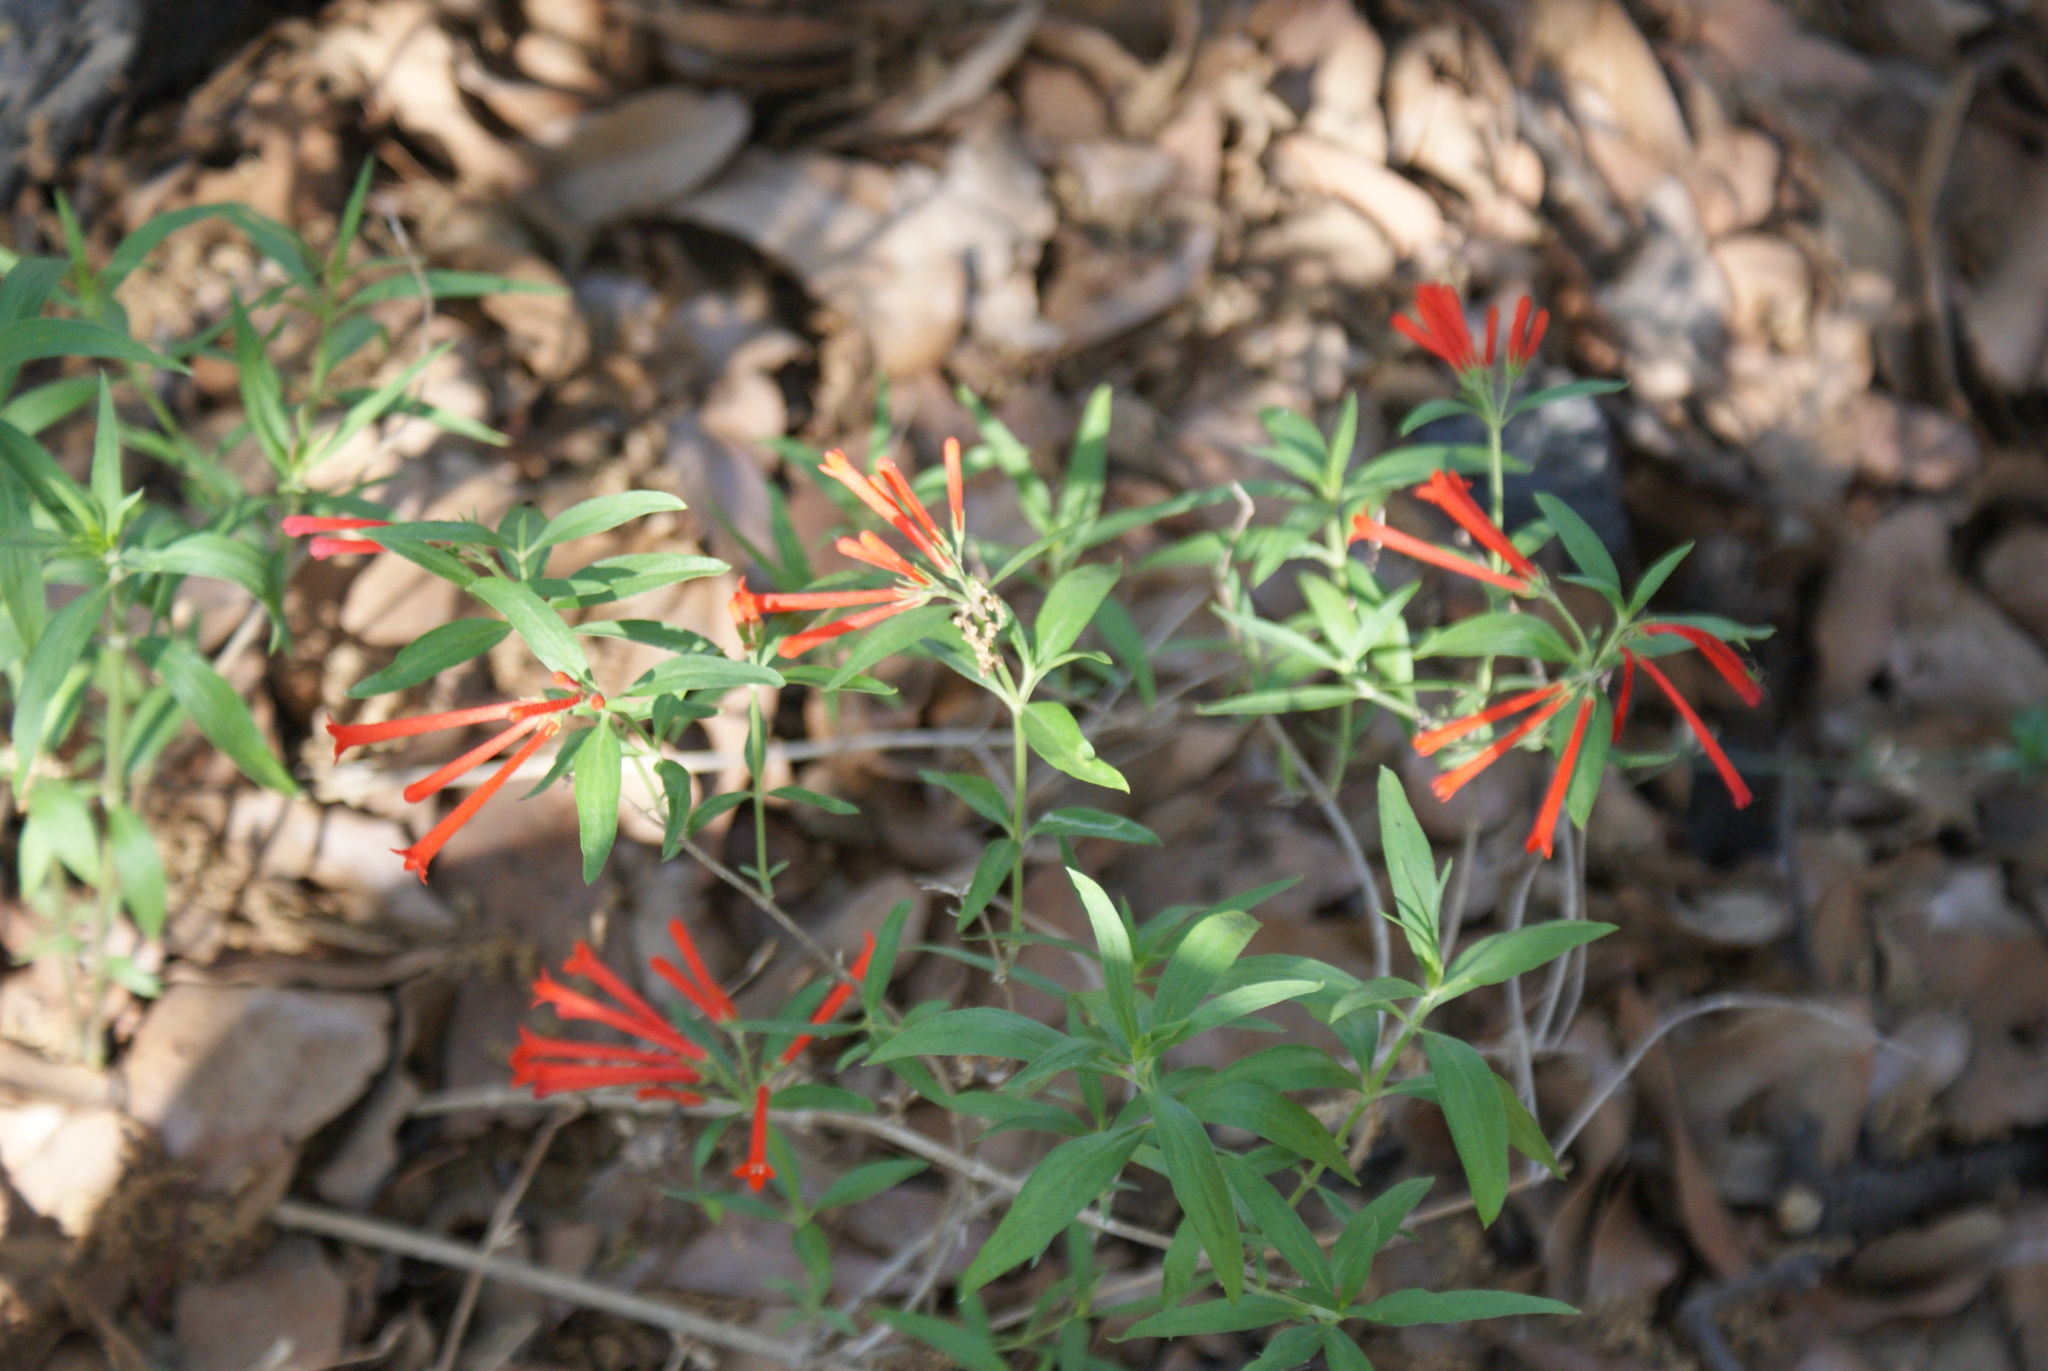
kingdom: Plantae
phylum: Tracheophyta
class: Magnoliopsida
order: Gentianales
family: Rubiaceae
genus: Bouvardia
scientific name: Bouvardia ternifolia
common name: Scarlet bouvardia
